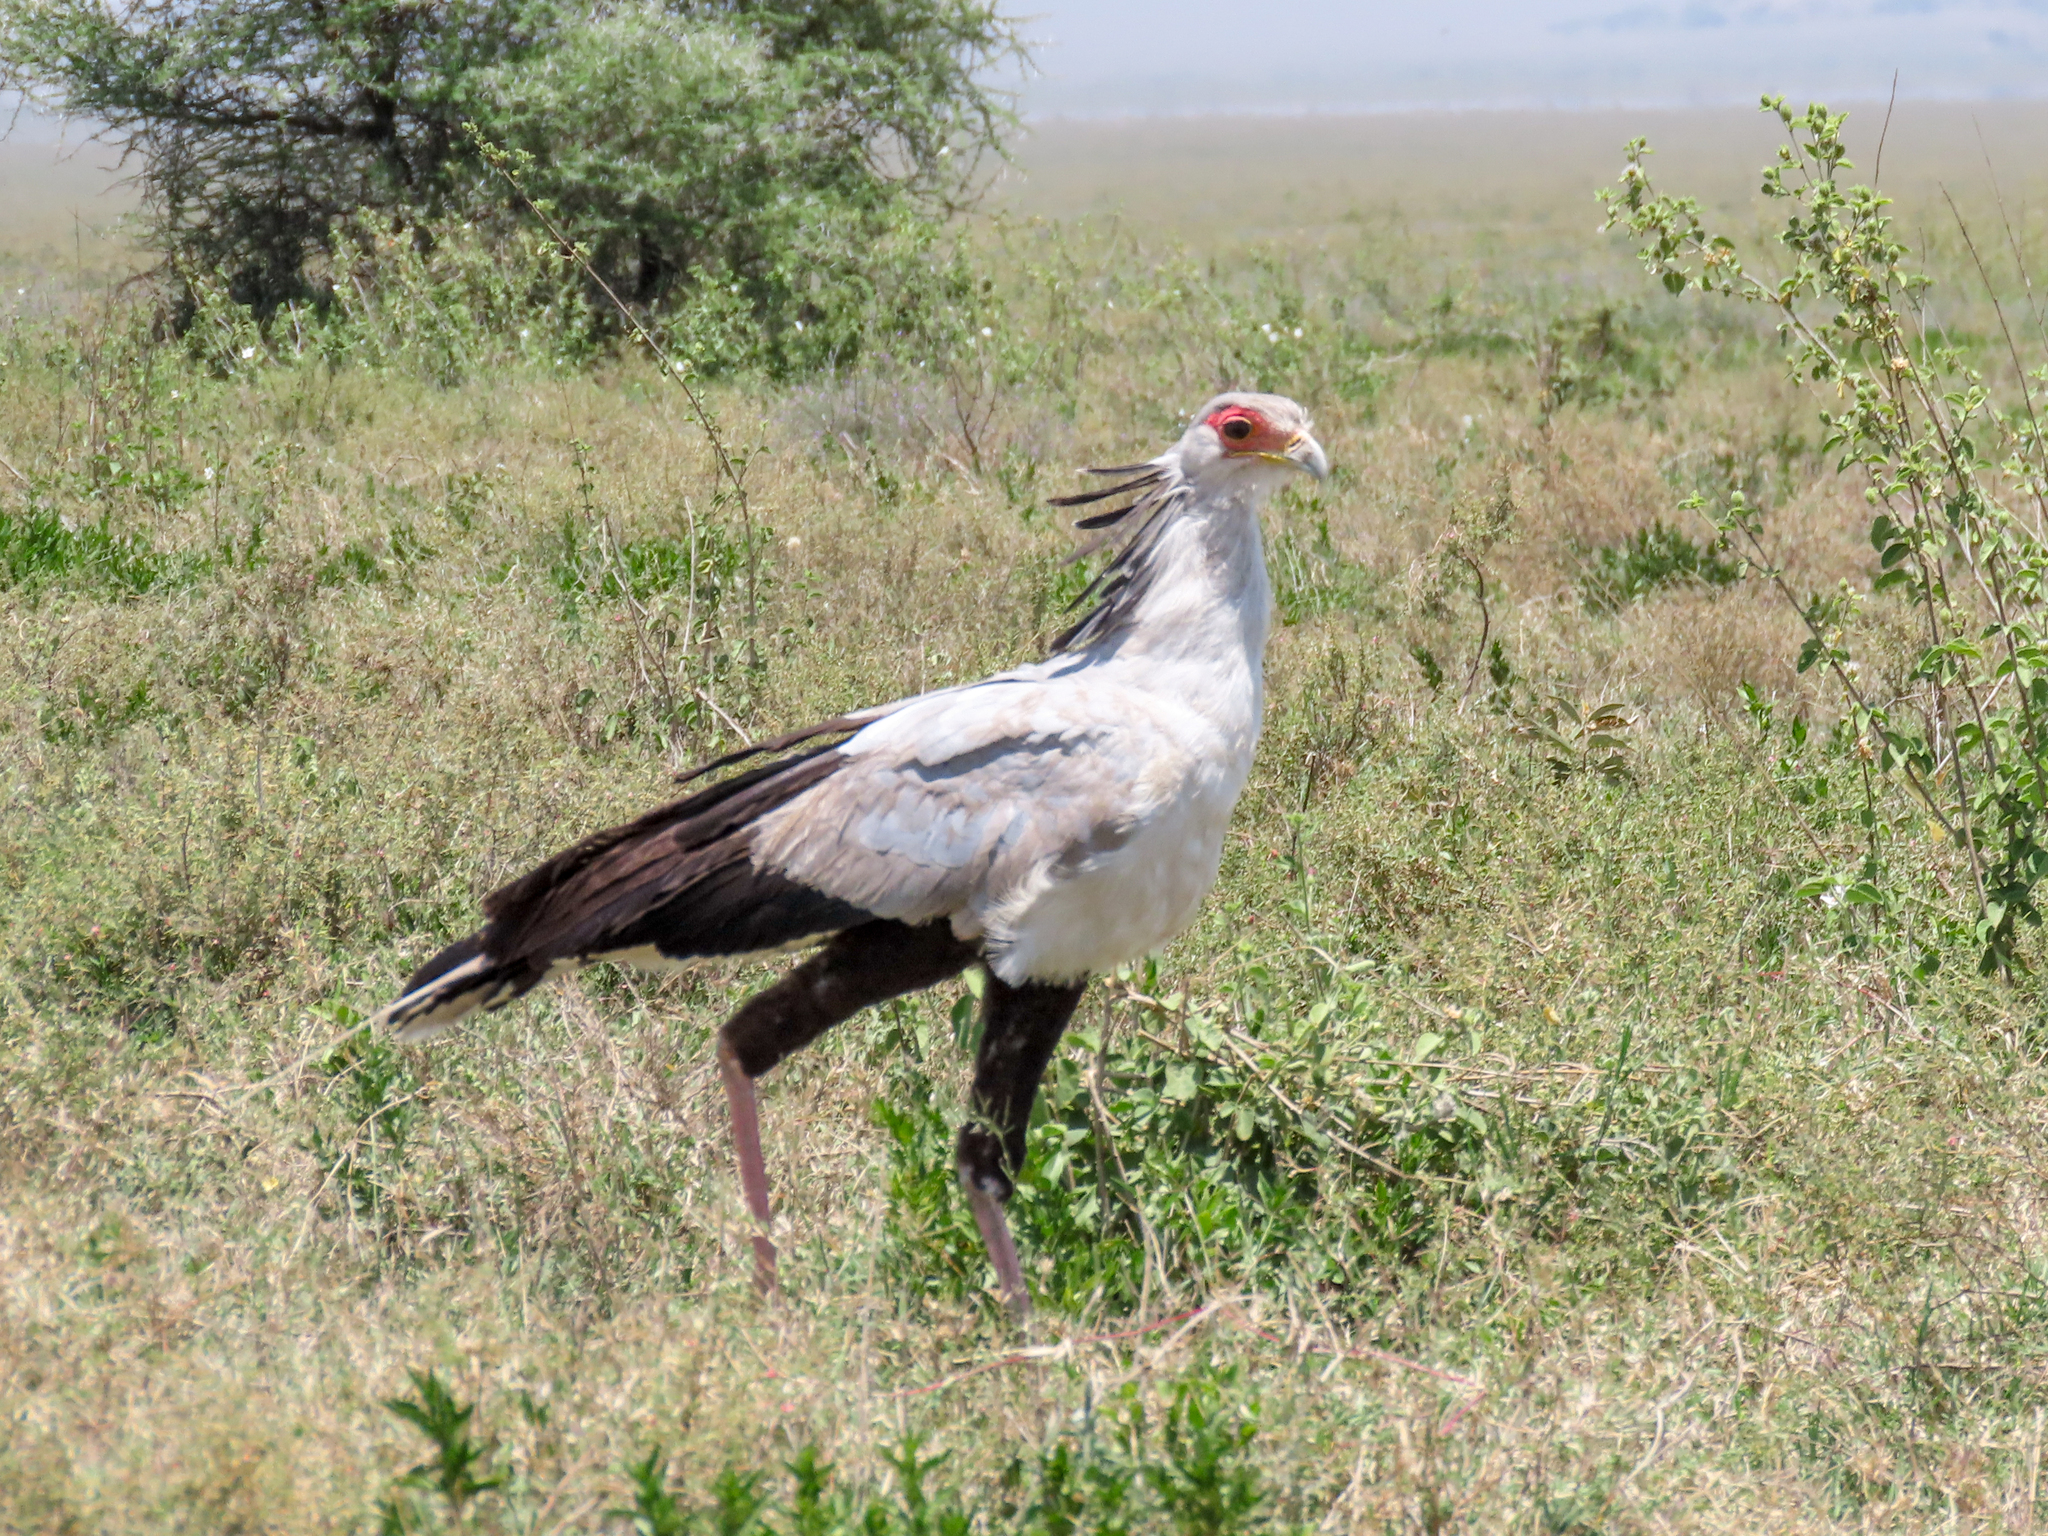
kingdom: Animalia
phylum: Chordata
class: Aves
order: Accipitriformes
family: Sagittariidae
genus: Sagittarius
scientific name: Sagittarius serpentarius
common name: Secretarybird
